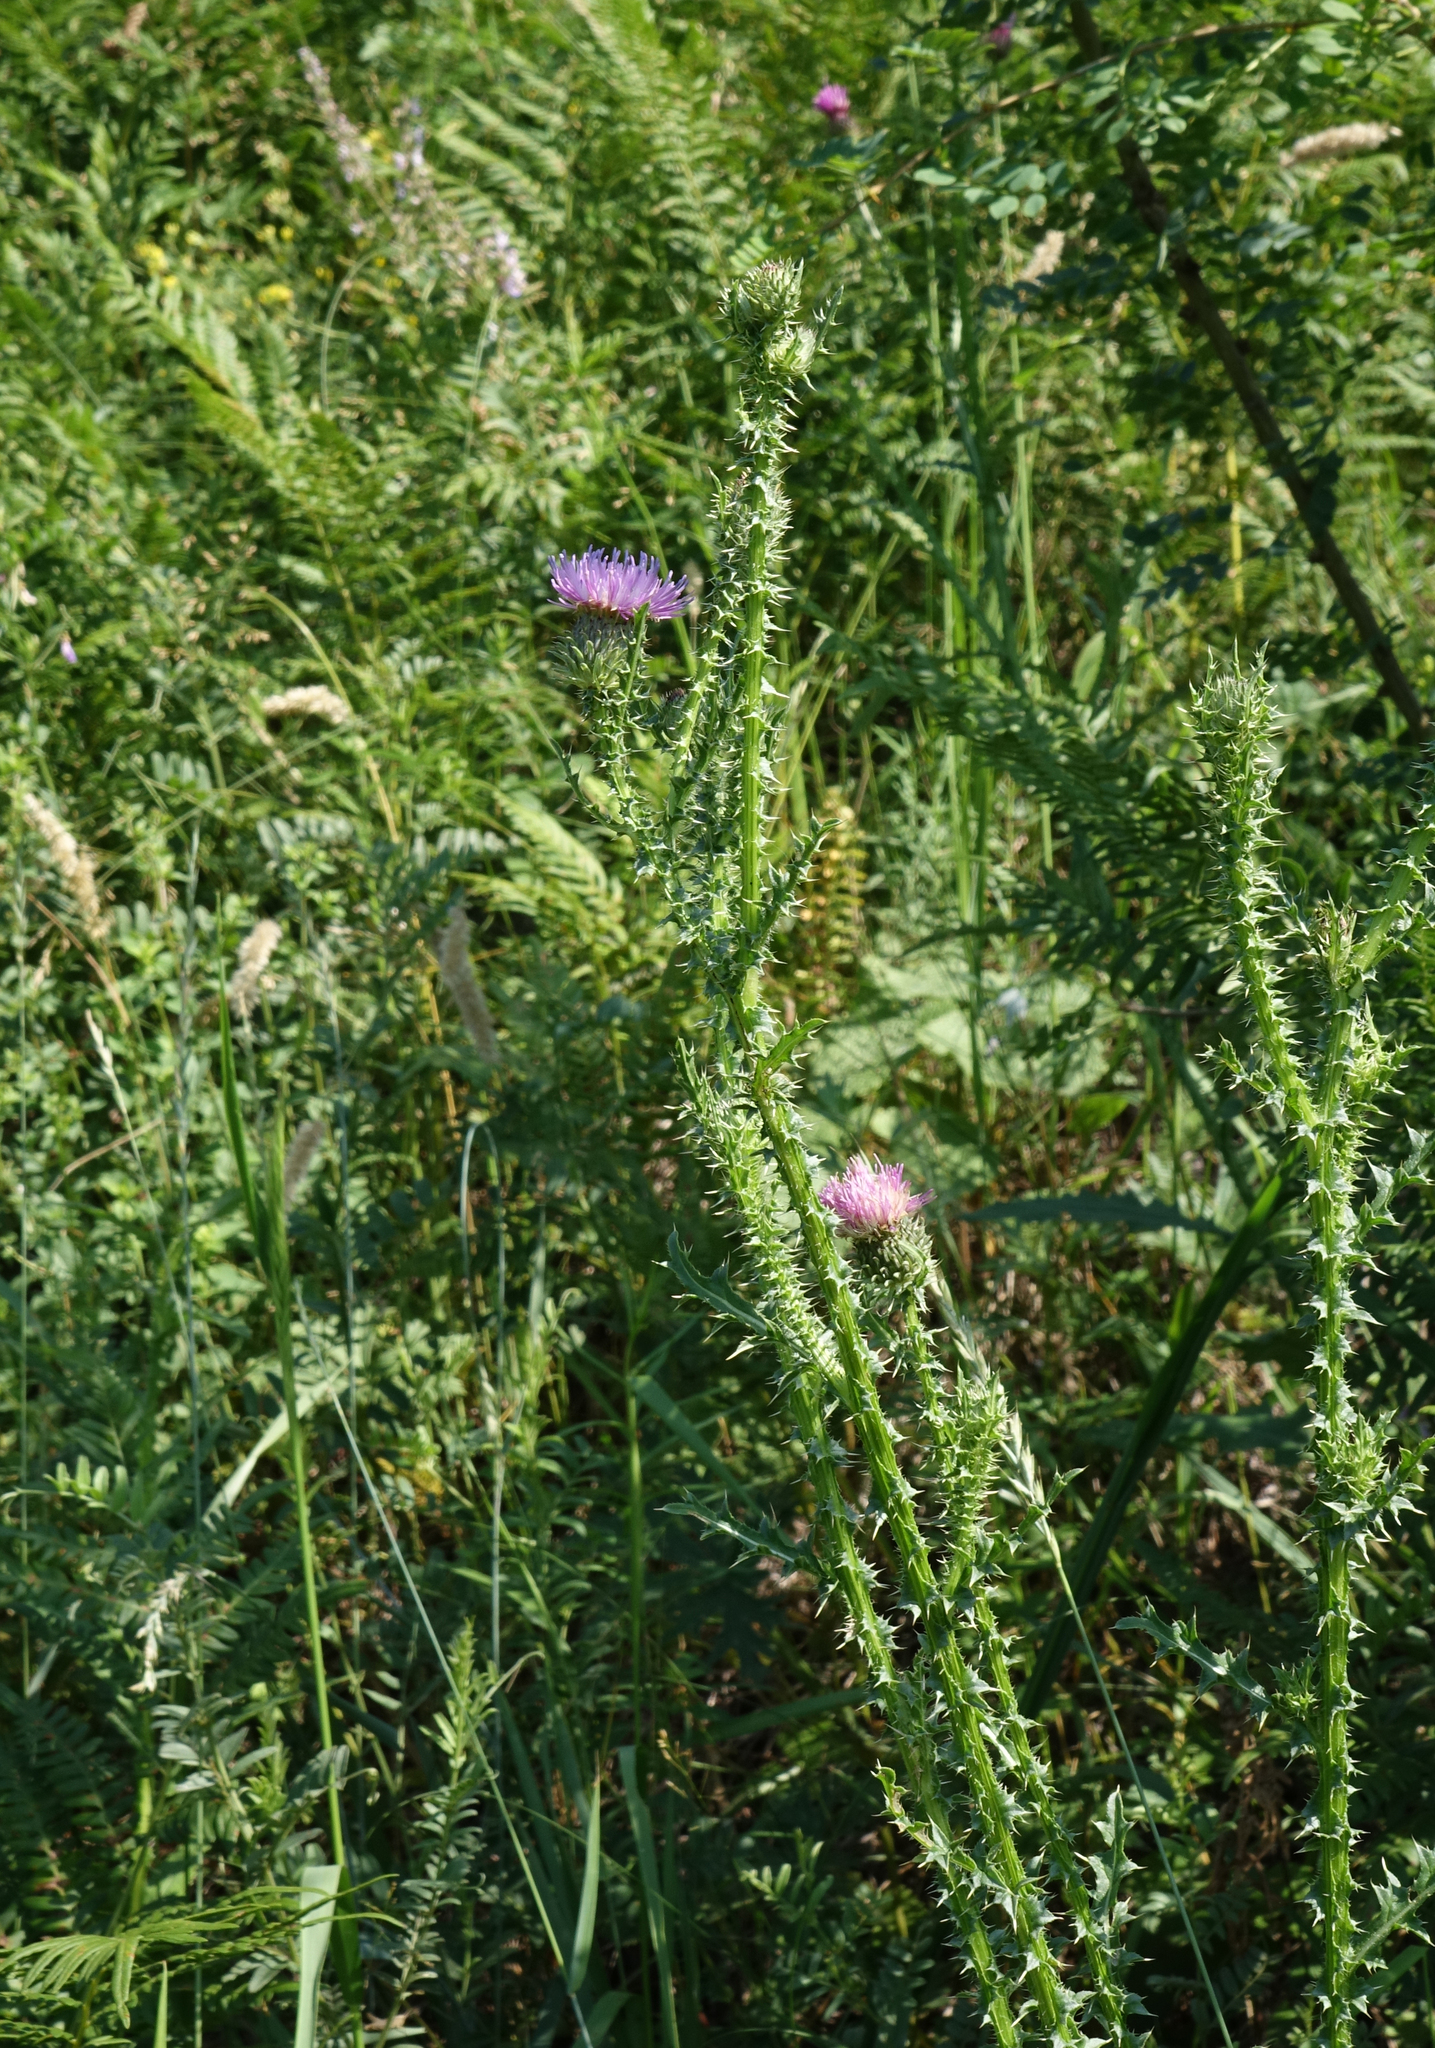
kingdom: Plantae
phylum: Tracheophyta
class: Magnoliopsida
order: Asterales
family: Asteraceae
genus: Carduus
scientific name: Carduus crispus
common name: Welted thistle
